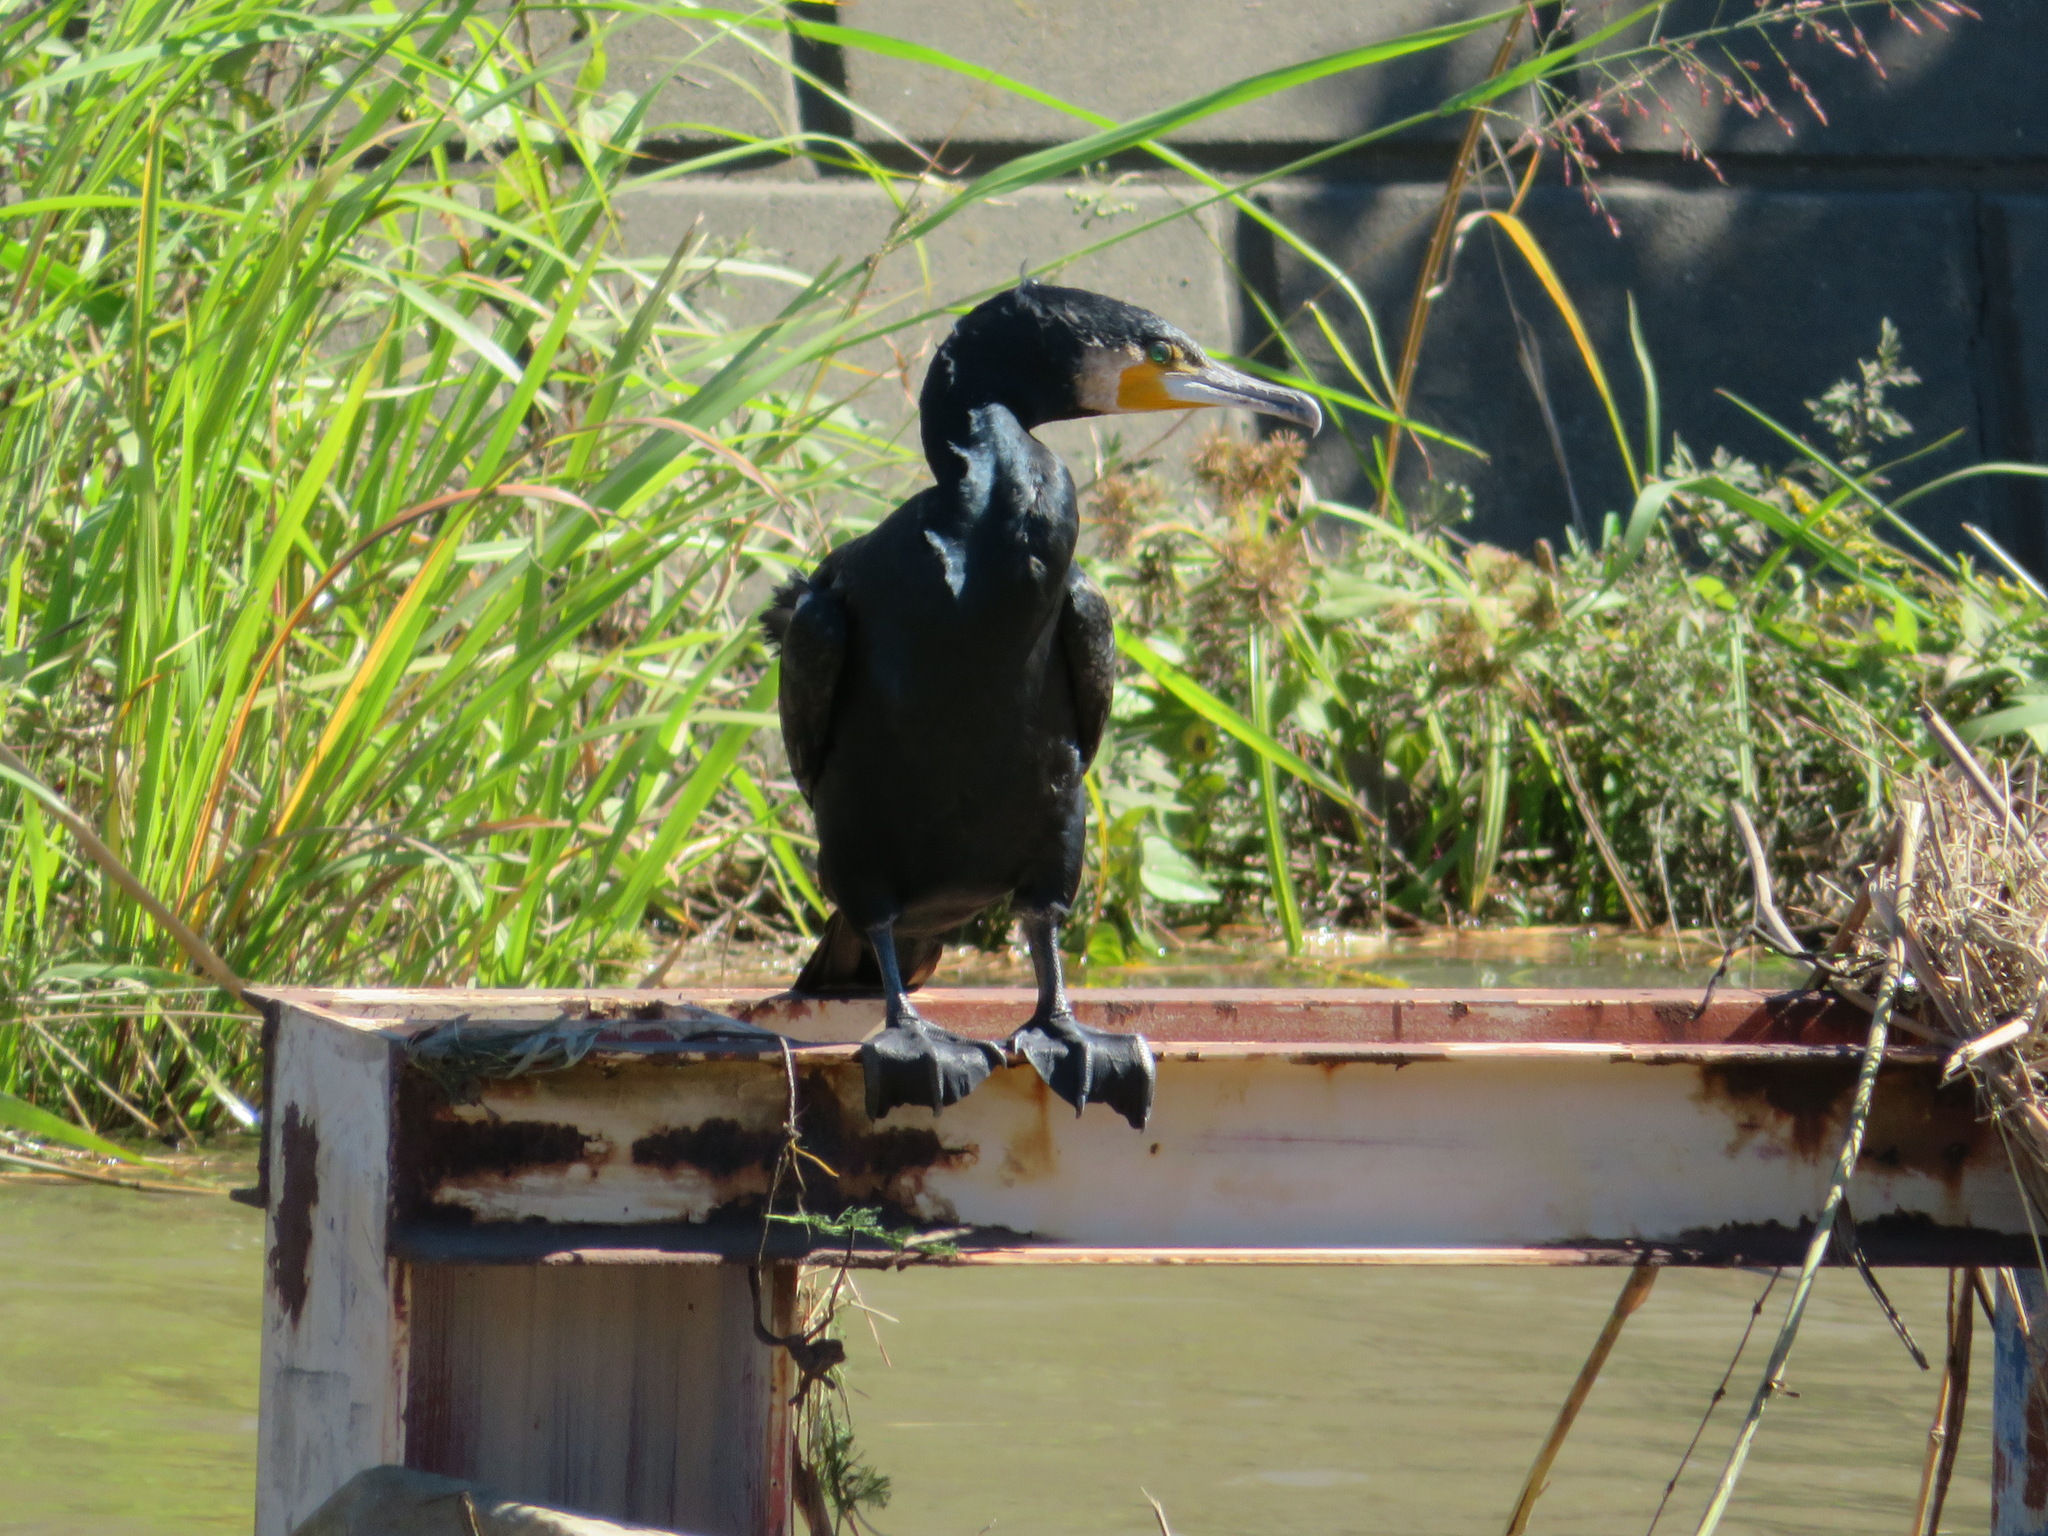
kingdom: Animalia
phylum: Chordata
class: Aves
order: Suliformes
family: Phalacrocoracidae
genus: Phalacrocorax
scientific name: Phalacrocorax carbo
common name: Great cormorant
